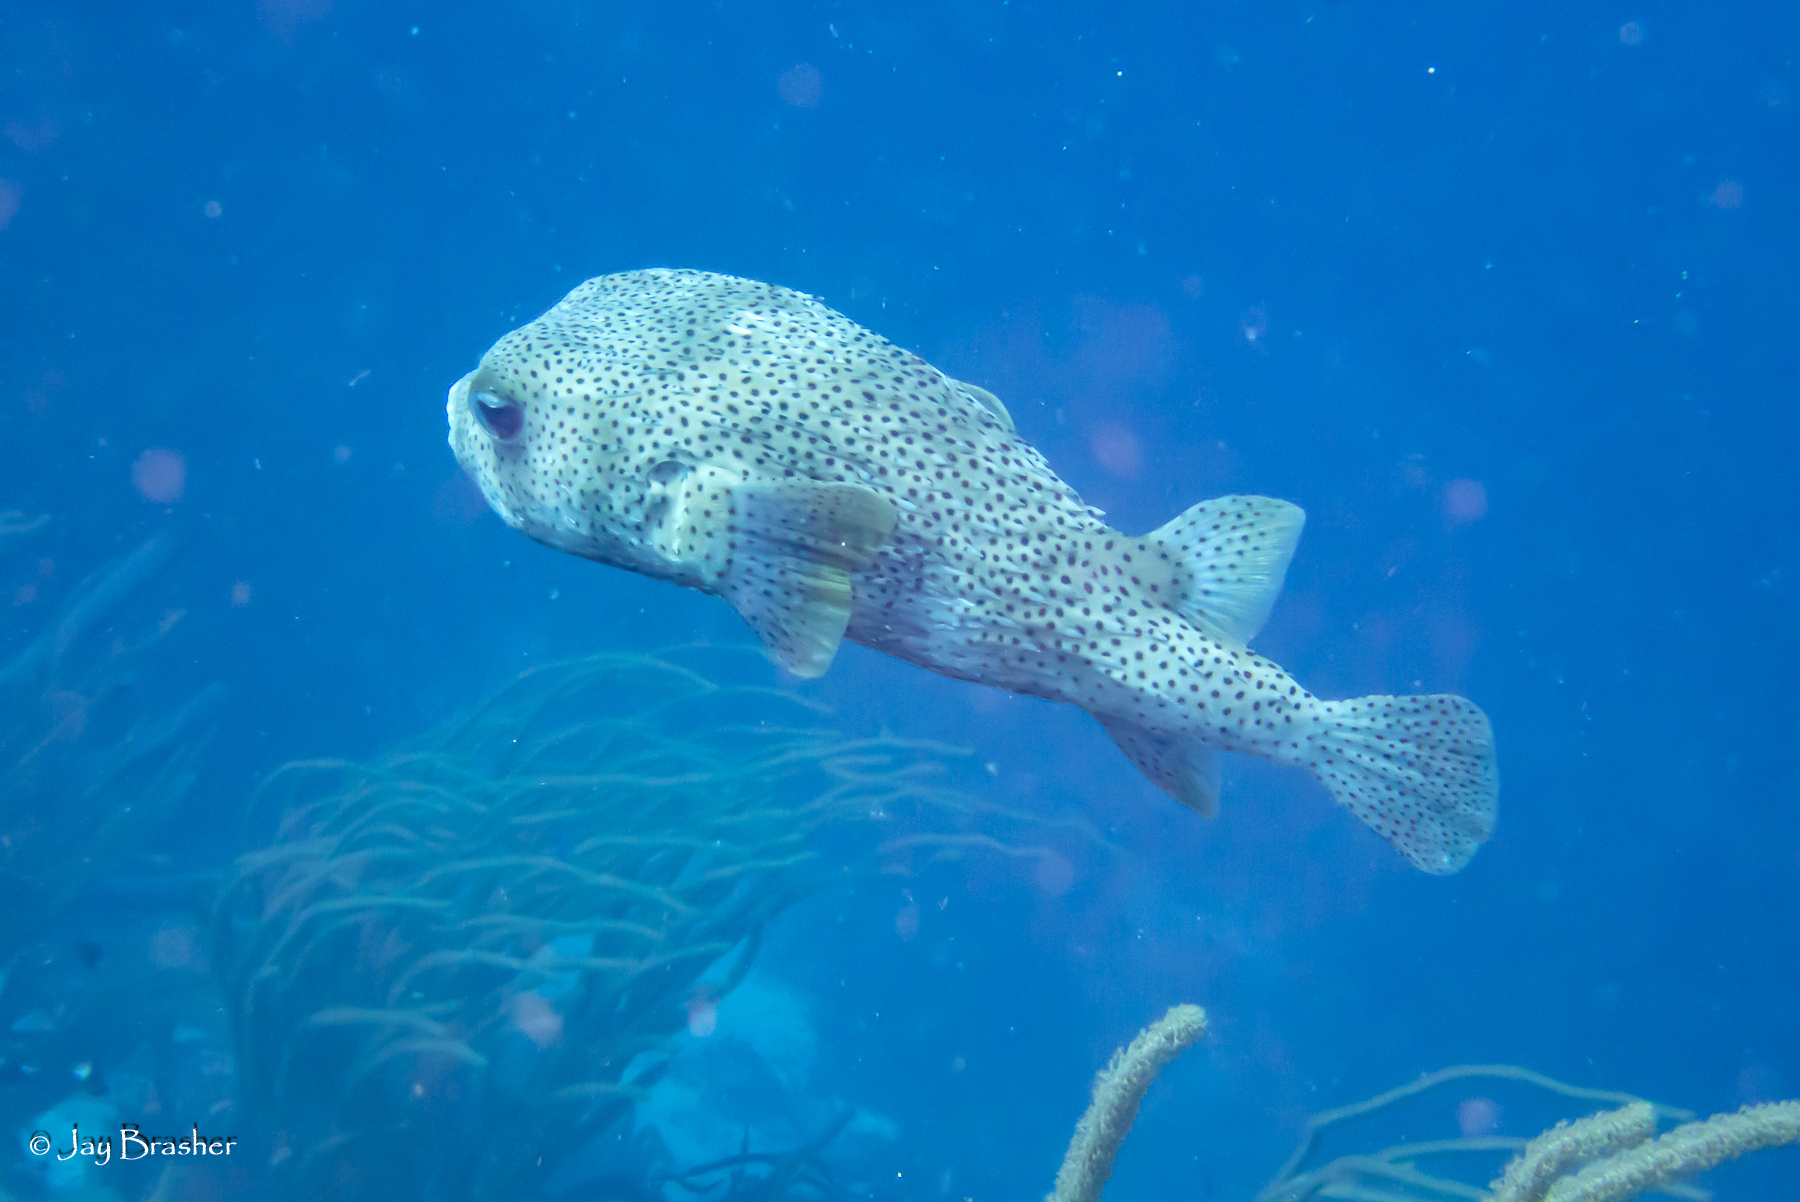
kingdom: Animalia
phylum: Chordata
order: Tetraodontiformes
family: Diodontidae
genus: Diodon
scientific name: Diodon hystrix
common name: Giant porcupinefish
